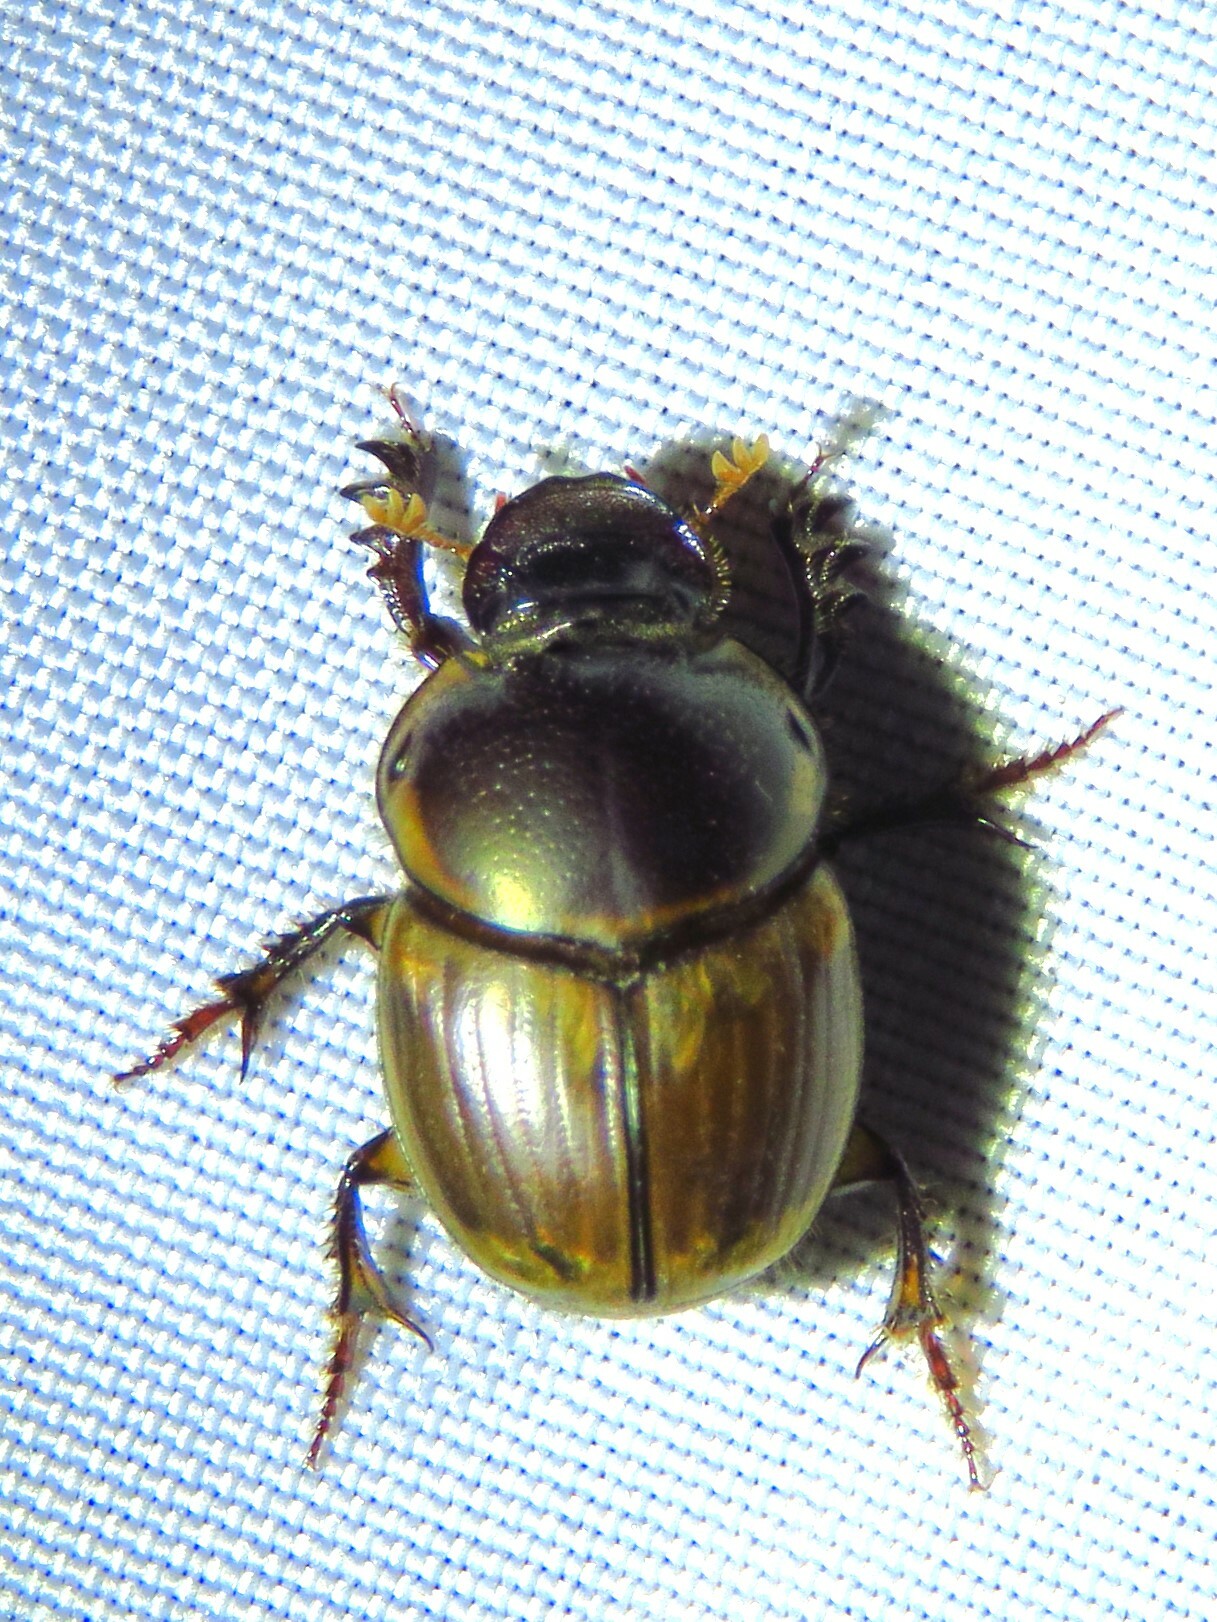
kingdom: Animalia
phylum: Arthropoda
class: Insecta
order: Coleoptera
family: Scarabaeidae
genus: Digitonthophagus
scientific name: Digitonthophagus gazella
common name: Brown dung beetle
